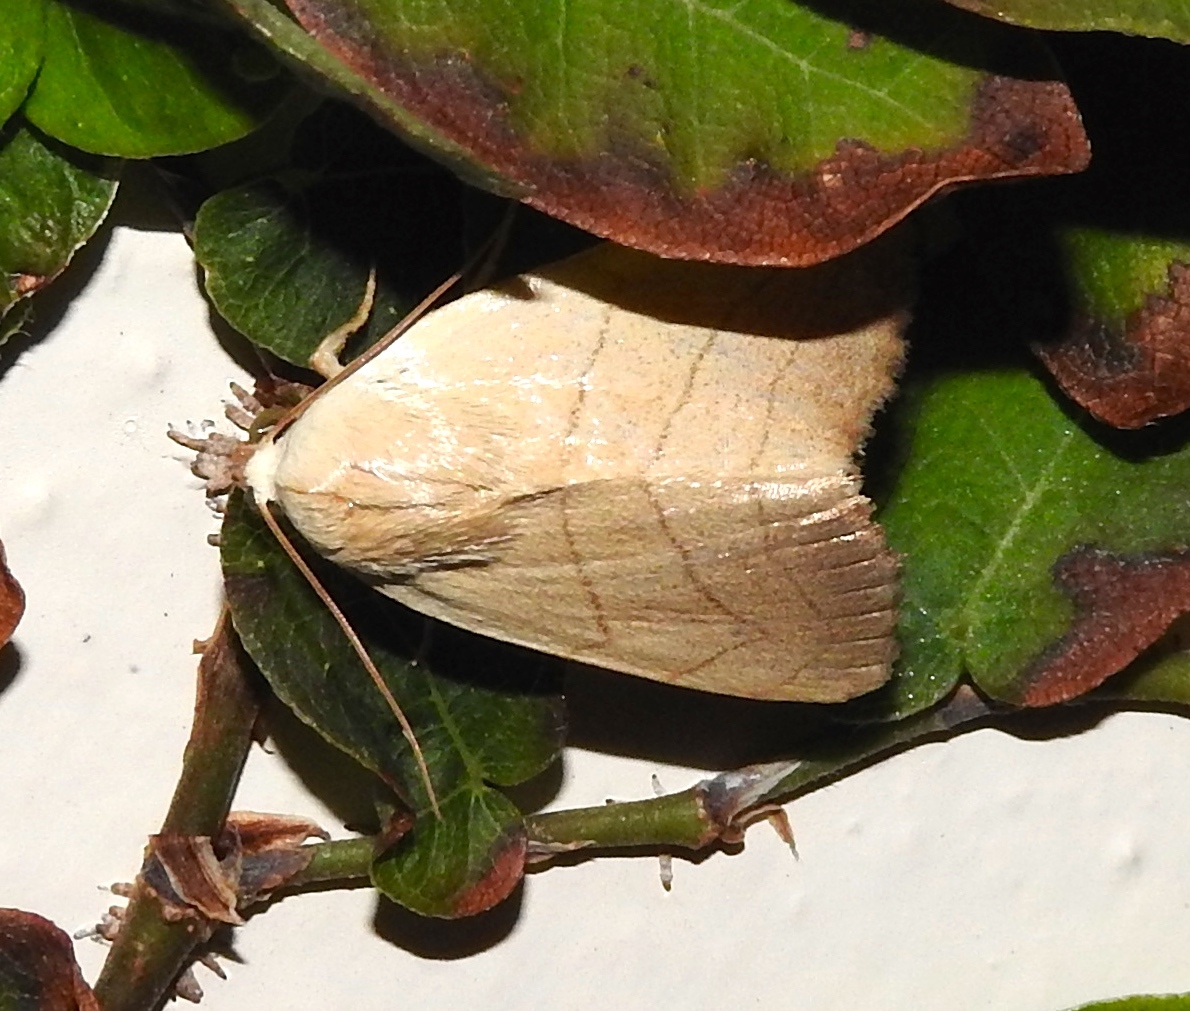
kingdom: Animalia
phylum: Arthropoda
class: Insecta
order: Lepidoptera
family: Noctuidae
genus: Bagisara
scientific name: Bagisara
